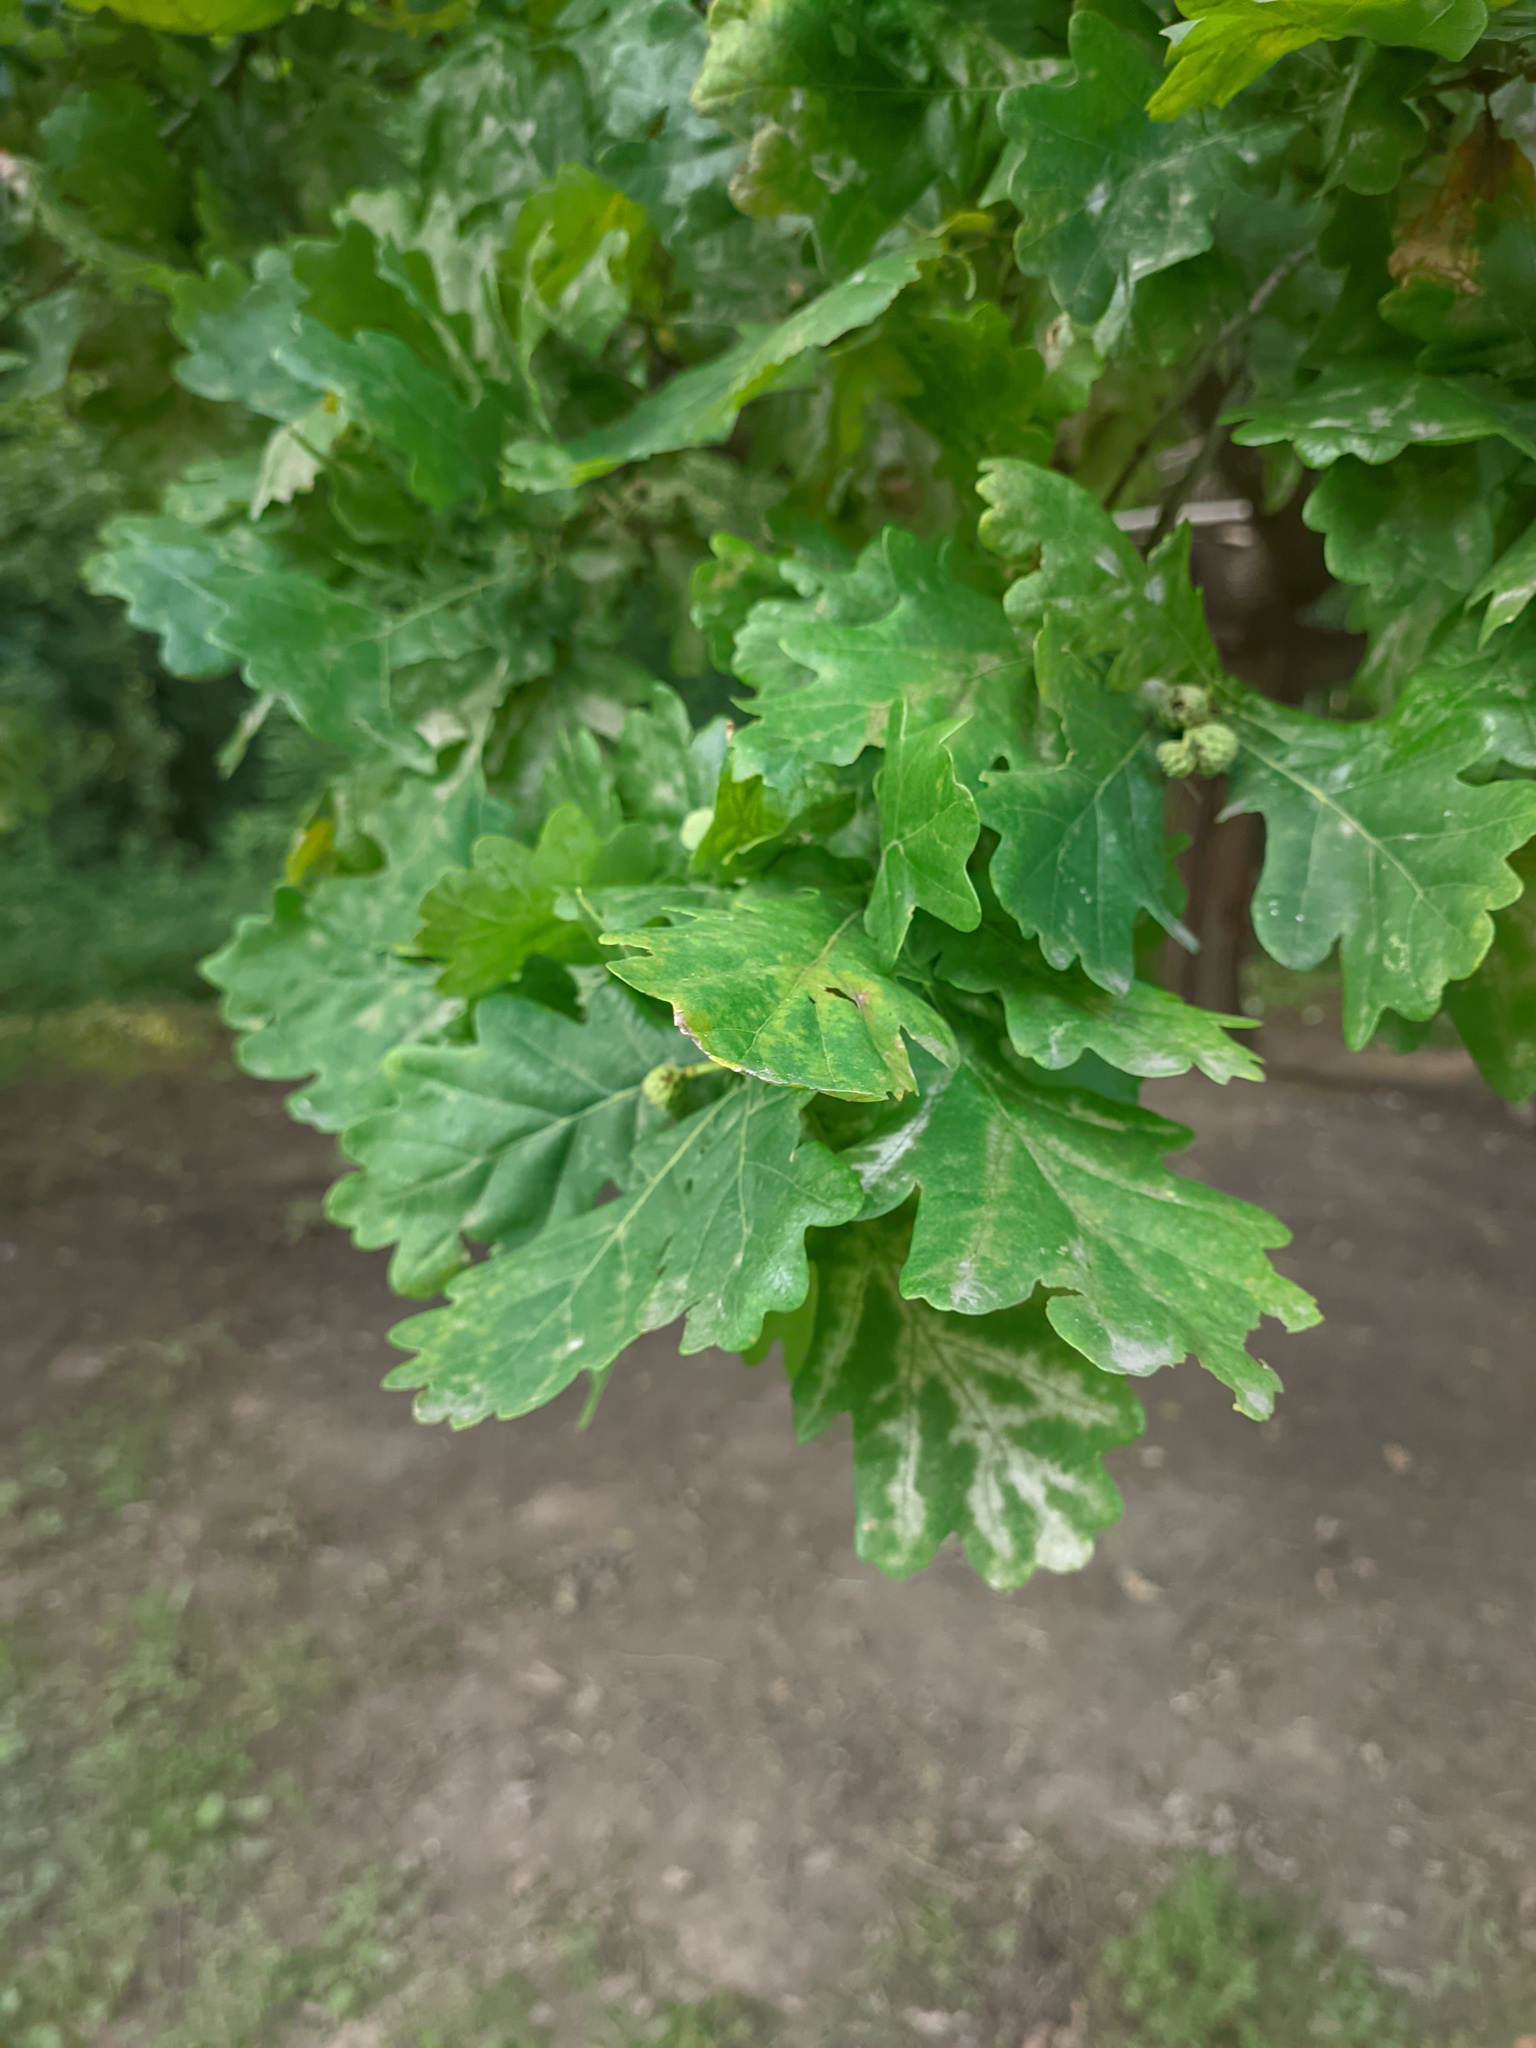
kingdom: Plantae
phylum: Tracheophyta
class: Magnoliopsida
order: Fagales
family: Fagaceae
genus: Quercus
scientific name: Quercus robur
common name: Pedunculate oak
